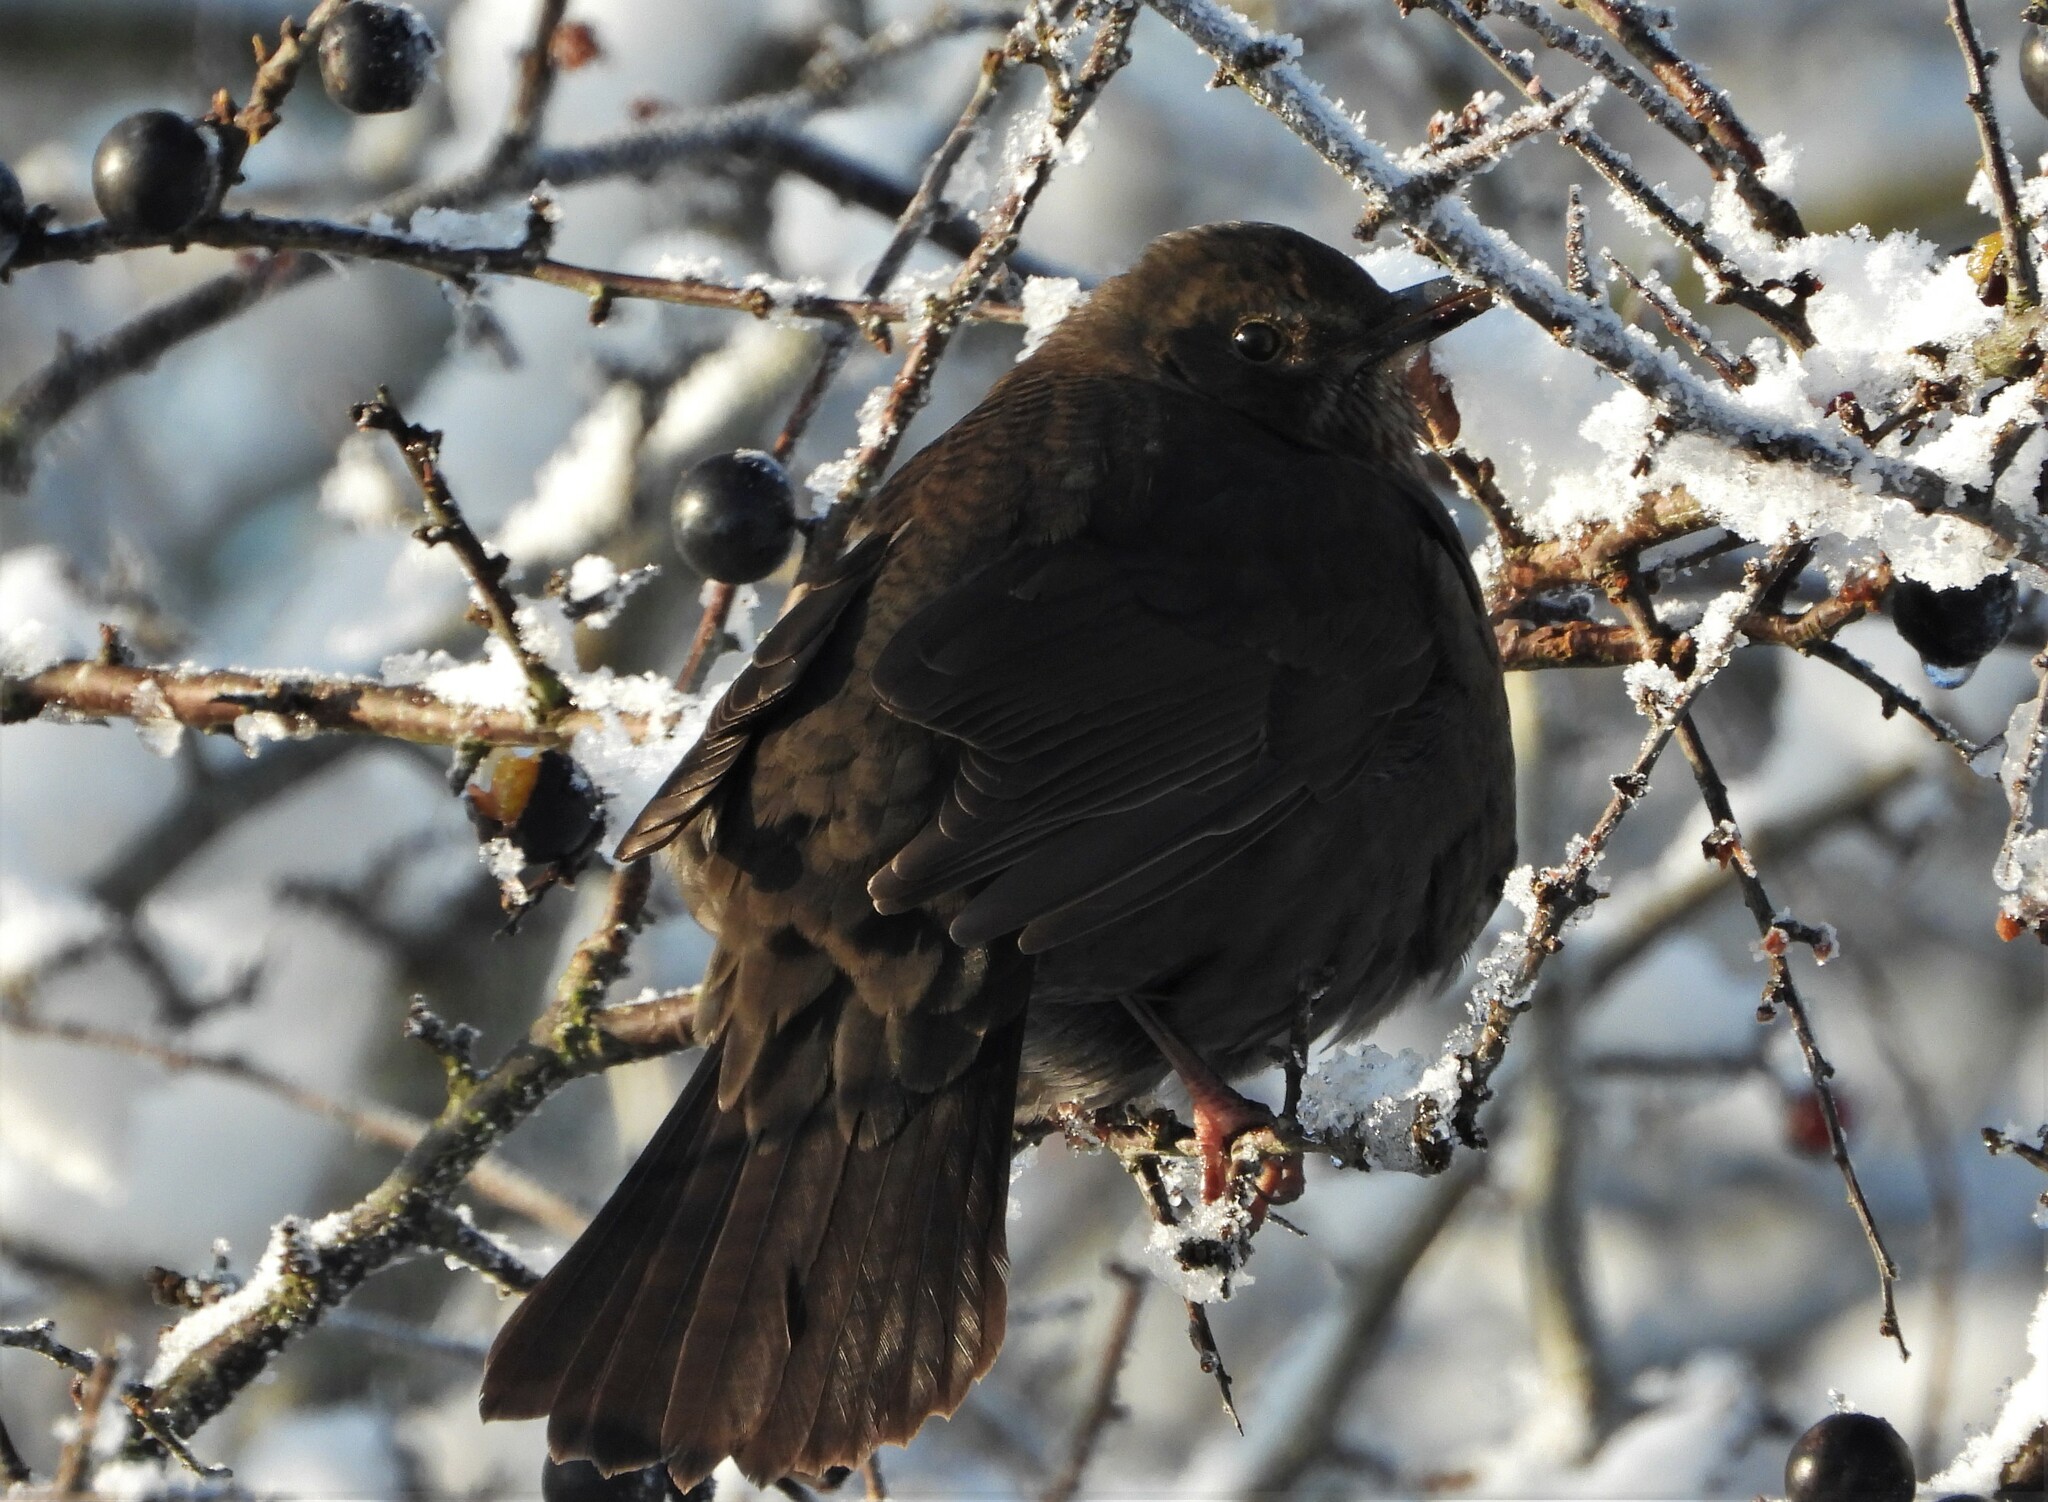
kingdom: Animalia
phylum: Chordata
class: Aves
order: Passeriformes
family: Turdidae
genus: Turdus
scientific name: Turdus merula
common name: Common blackbird
